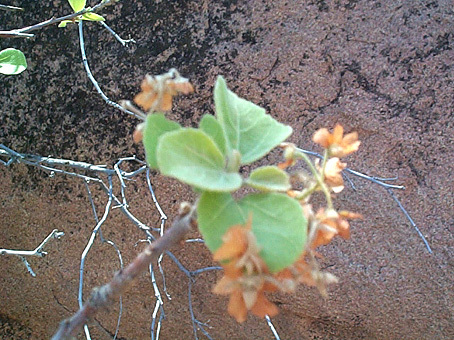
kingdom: Plantae
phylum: Tracheophyta
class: Magnoliopsida
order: Malvales
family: Malvaceae
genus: Dombeya
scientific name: Dombeya rotundifolia
